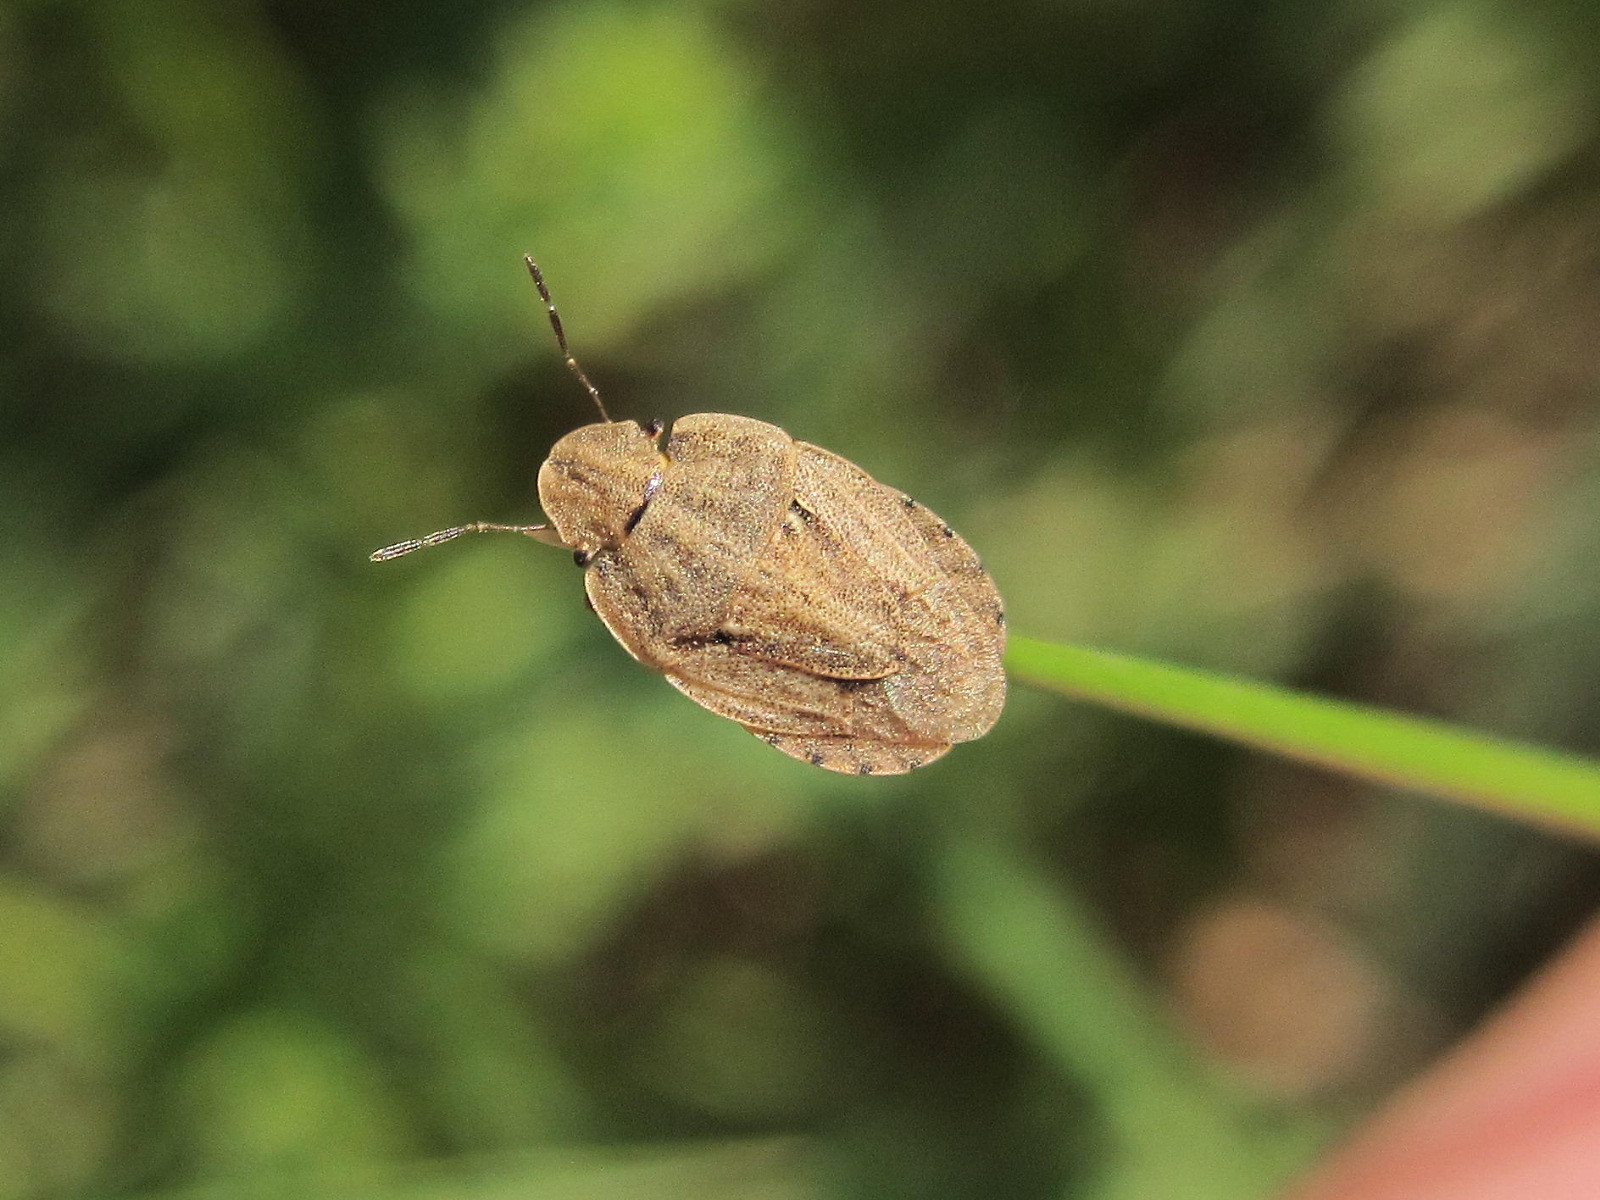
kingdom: Animalia
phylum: Arthropoda
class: Insecta
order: Hemiptera
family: Pentatomidae
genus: Sciocoris
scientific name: Sciocoris sulcatus
